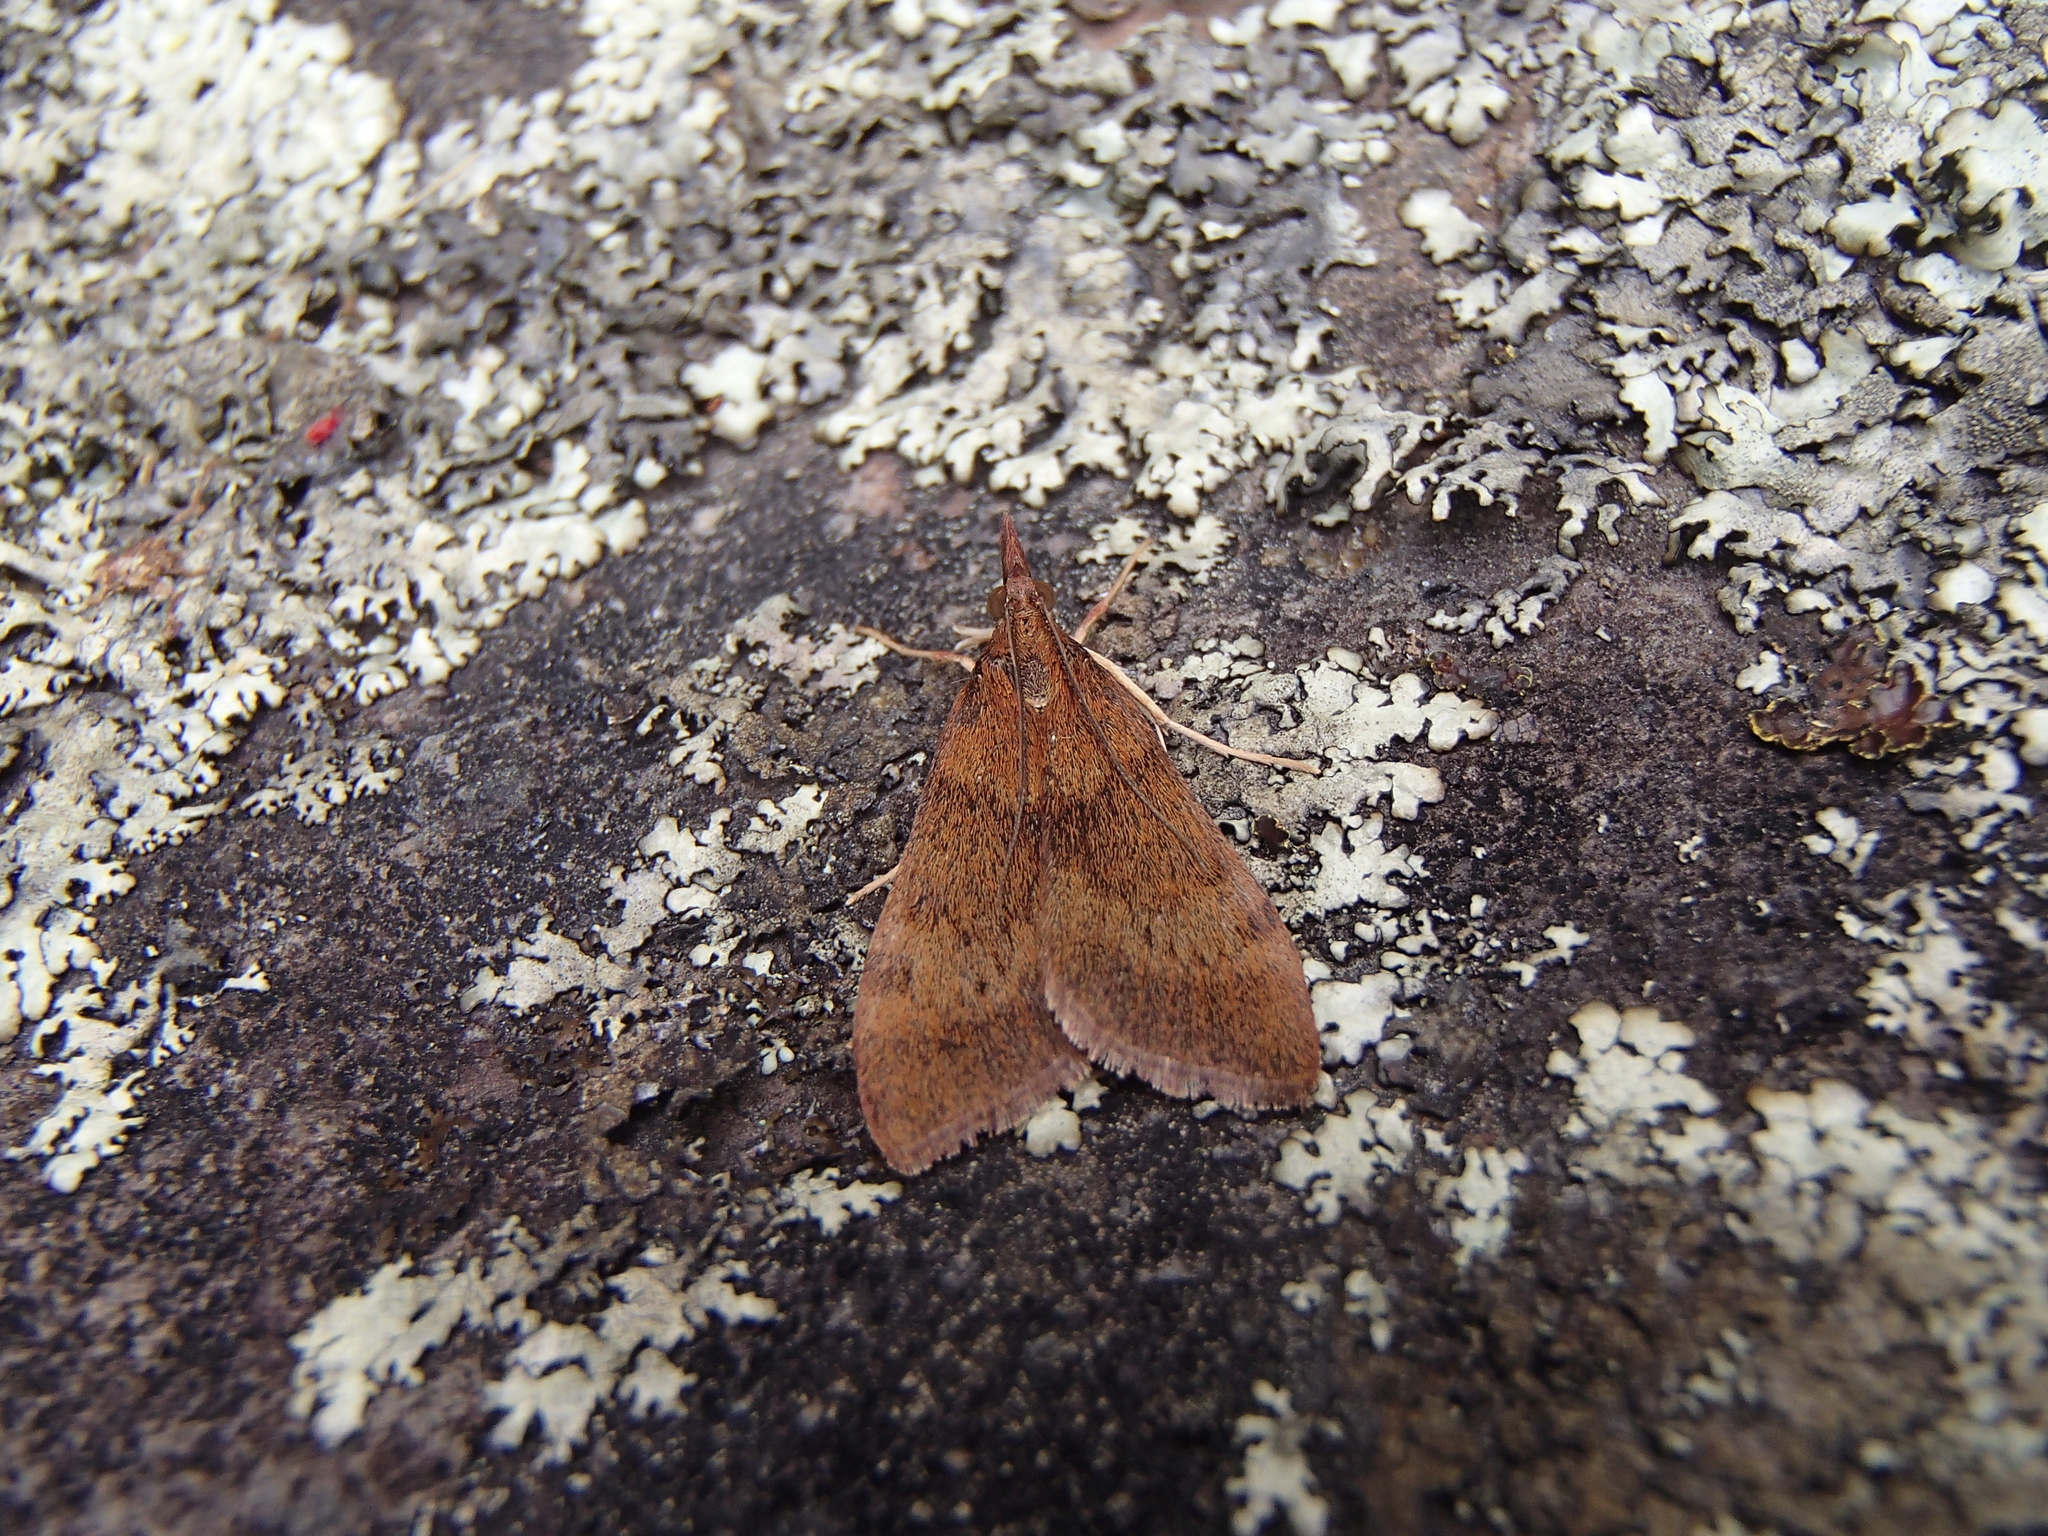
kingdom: Animalia
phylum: Arthropoda
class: Insecta
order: Lepidoptera
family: Crambidae
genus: Uresiphita
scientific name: Uresiphita
